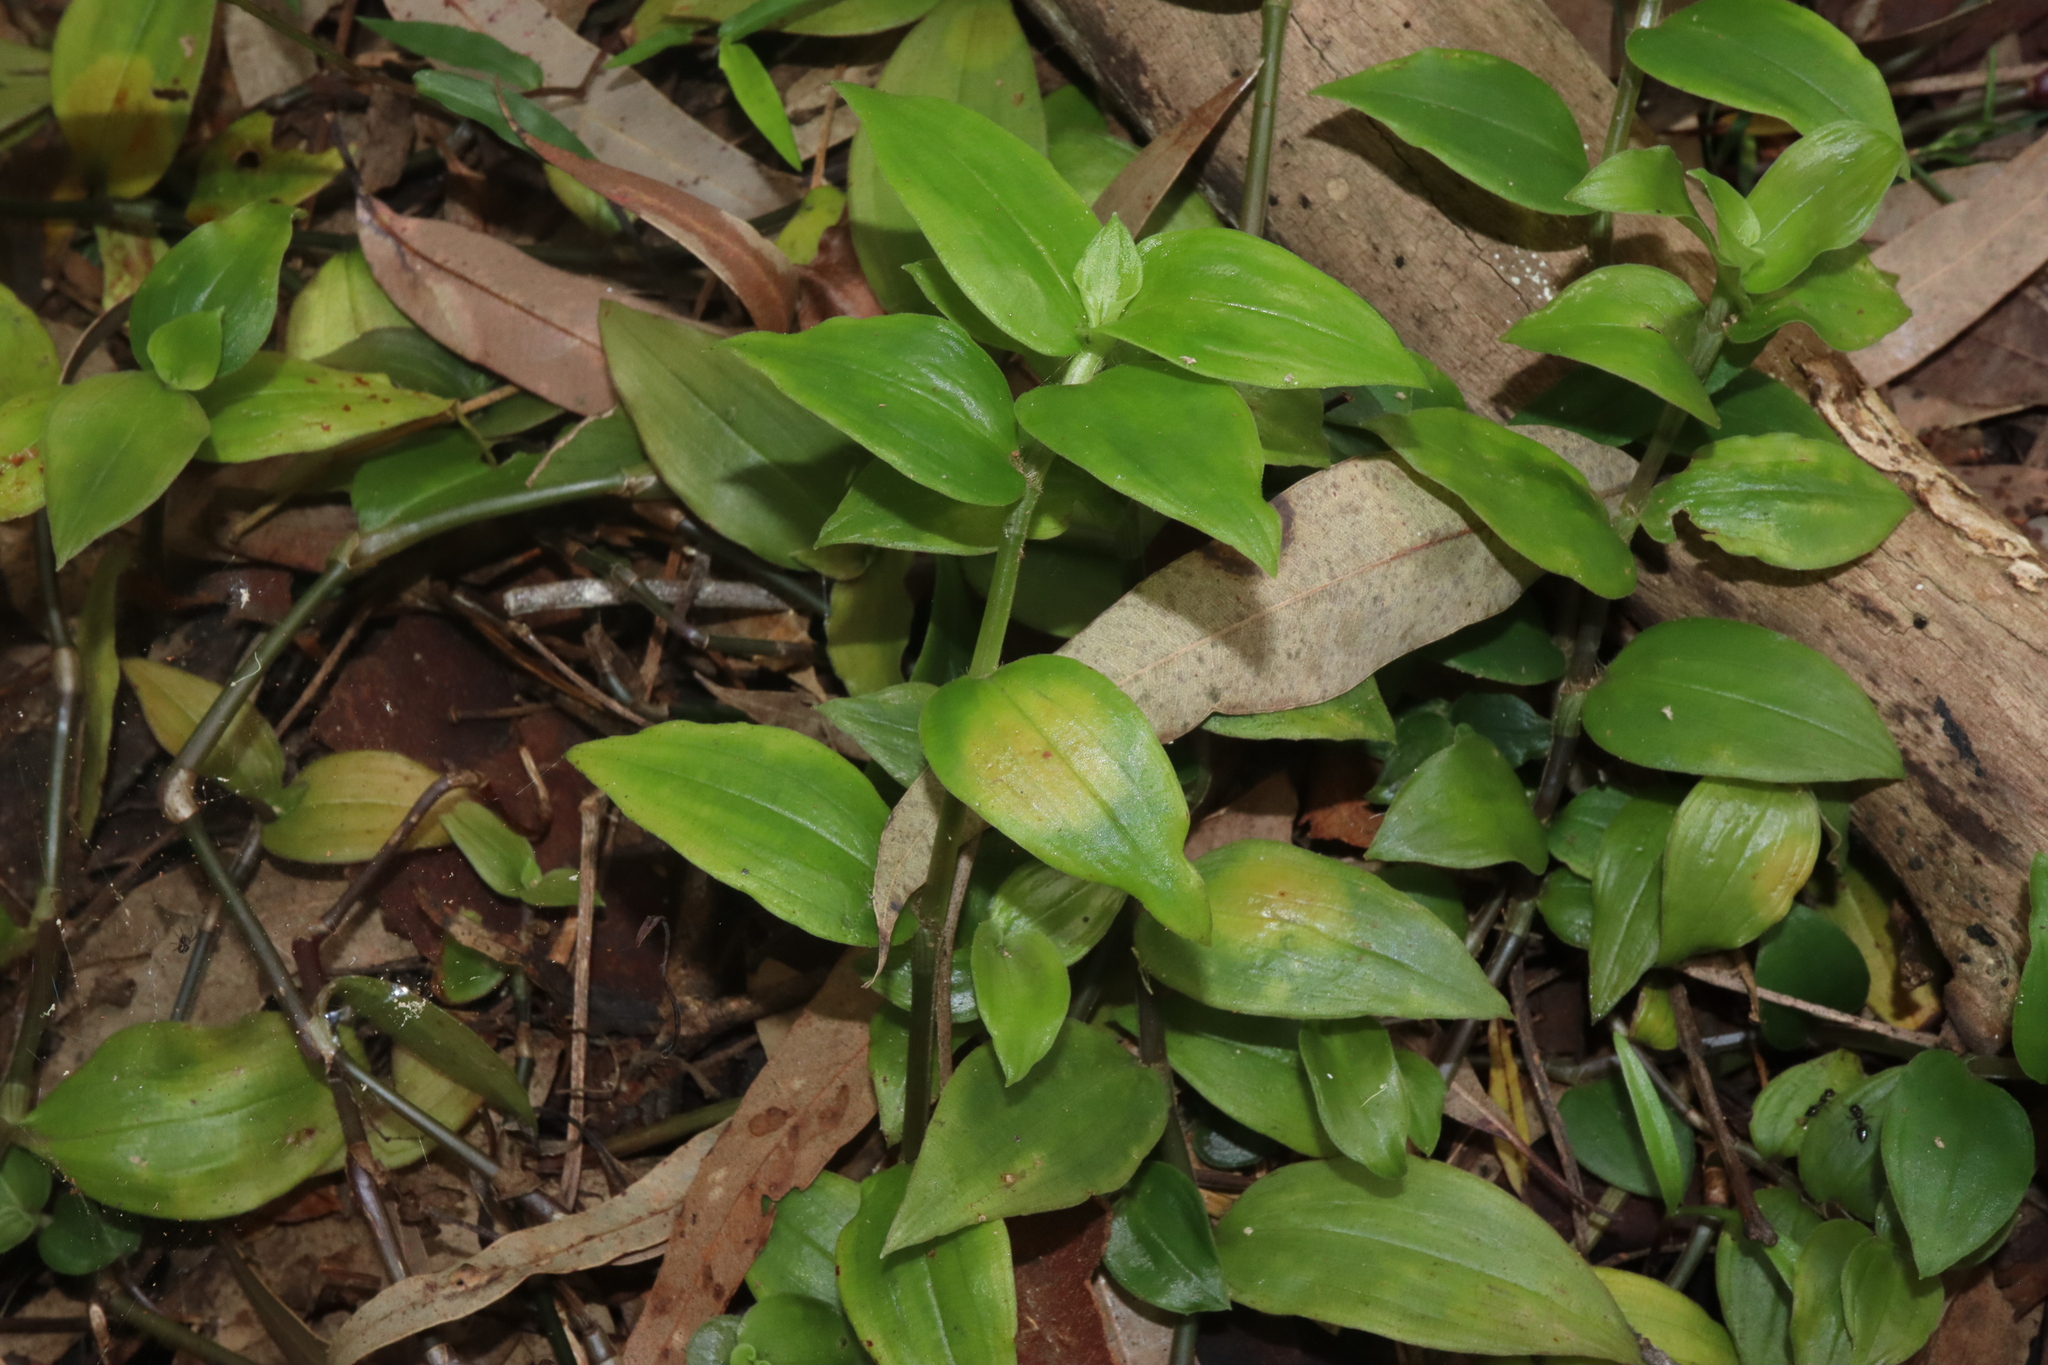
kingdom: Fungi
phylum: Basidiomycota
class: Exobasidiomycetes
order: Exobasidiales
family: Brachybasidiaceae
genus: Kordyana
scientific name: Kordyana brasiliensis
